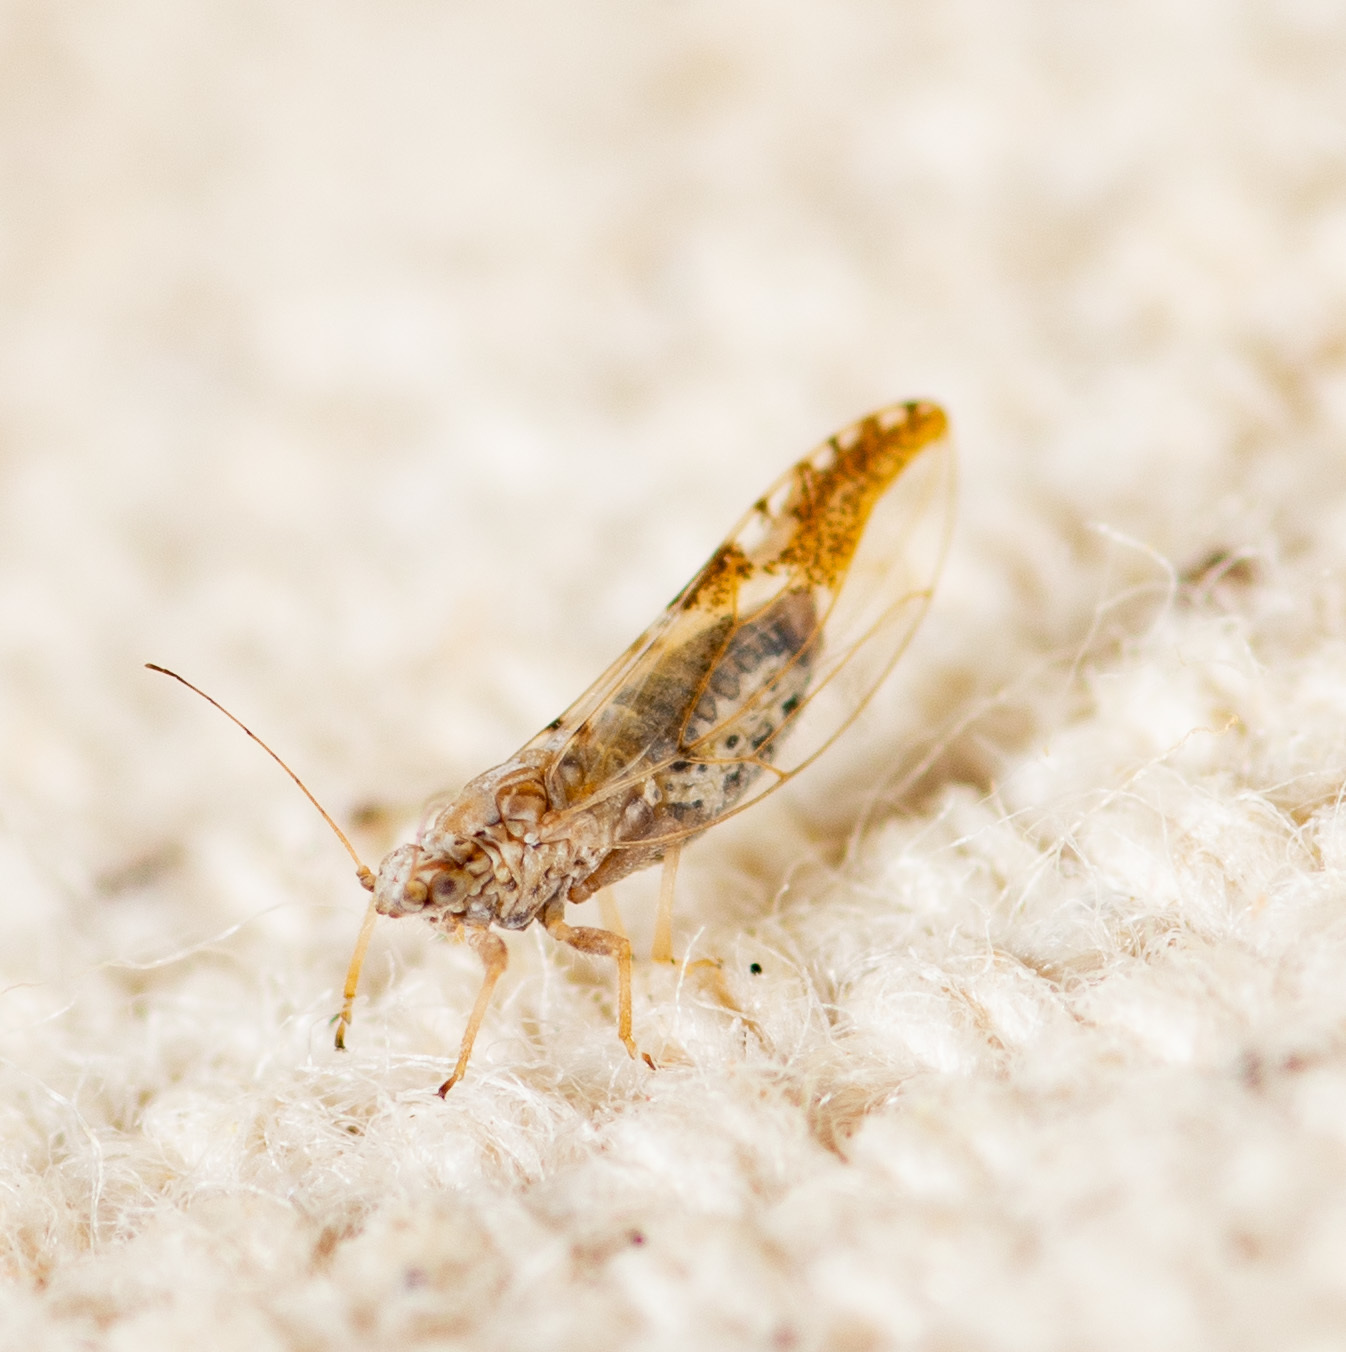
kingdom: Animalia
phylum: Arthropoda
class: Insecta
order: Hemiptera
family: Triozidae
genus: Leuronota
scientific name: Leuronota maculata
